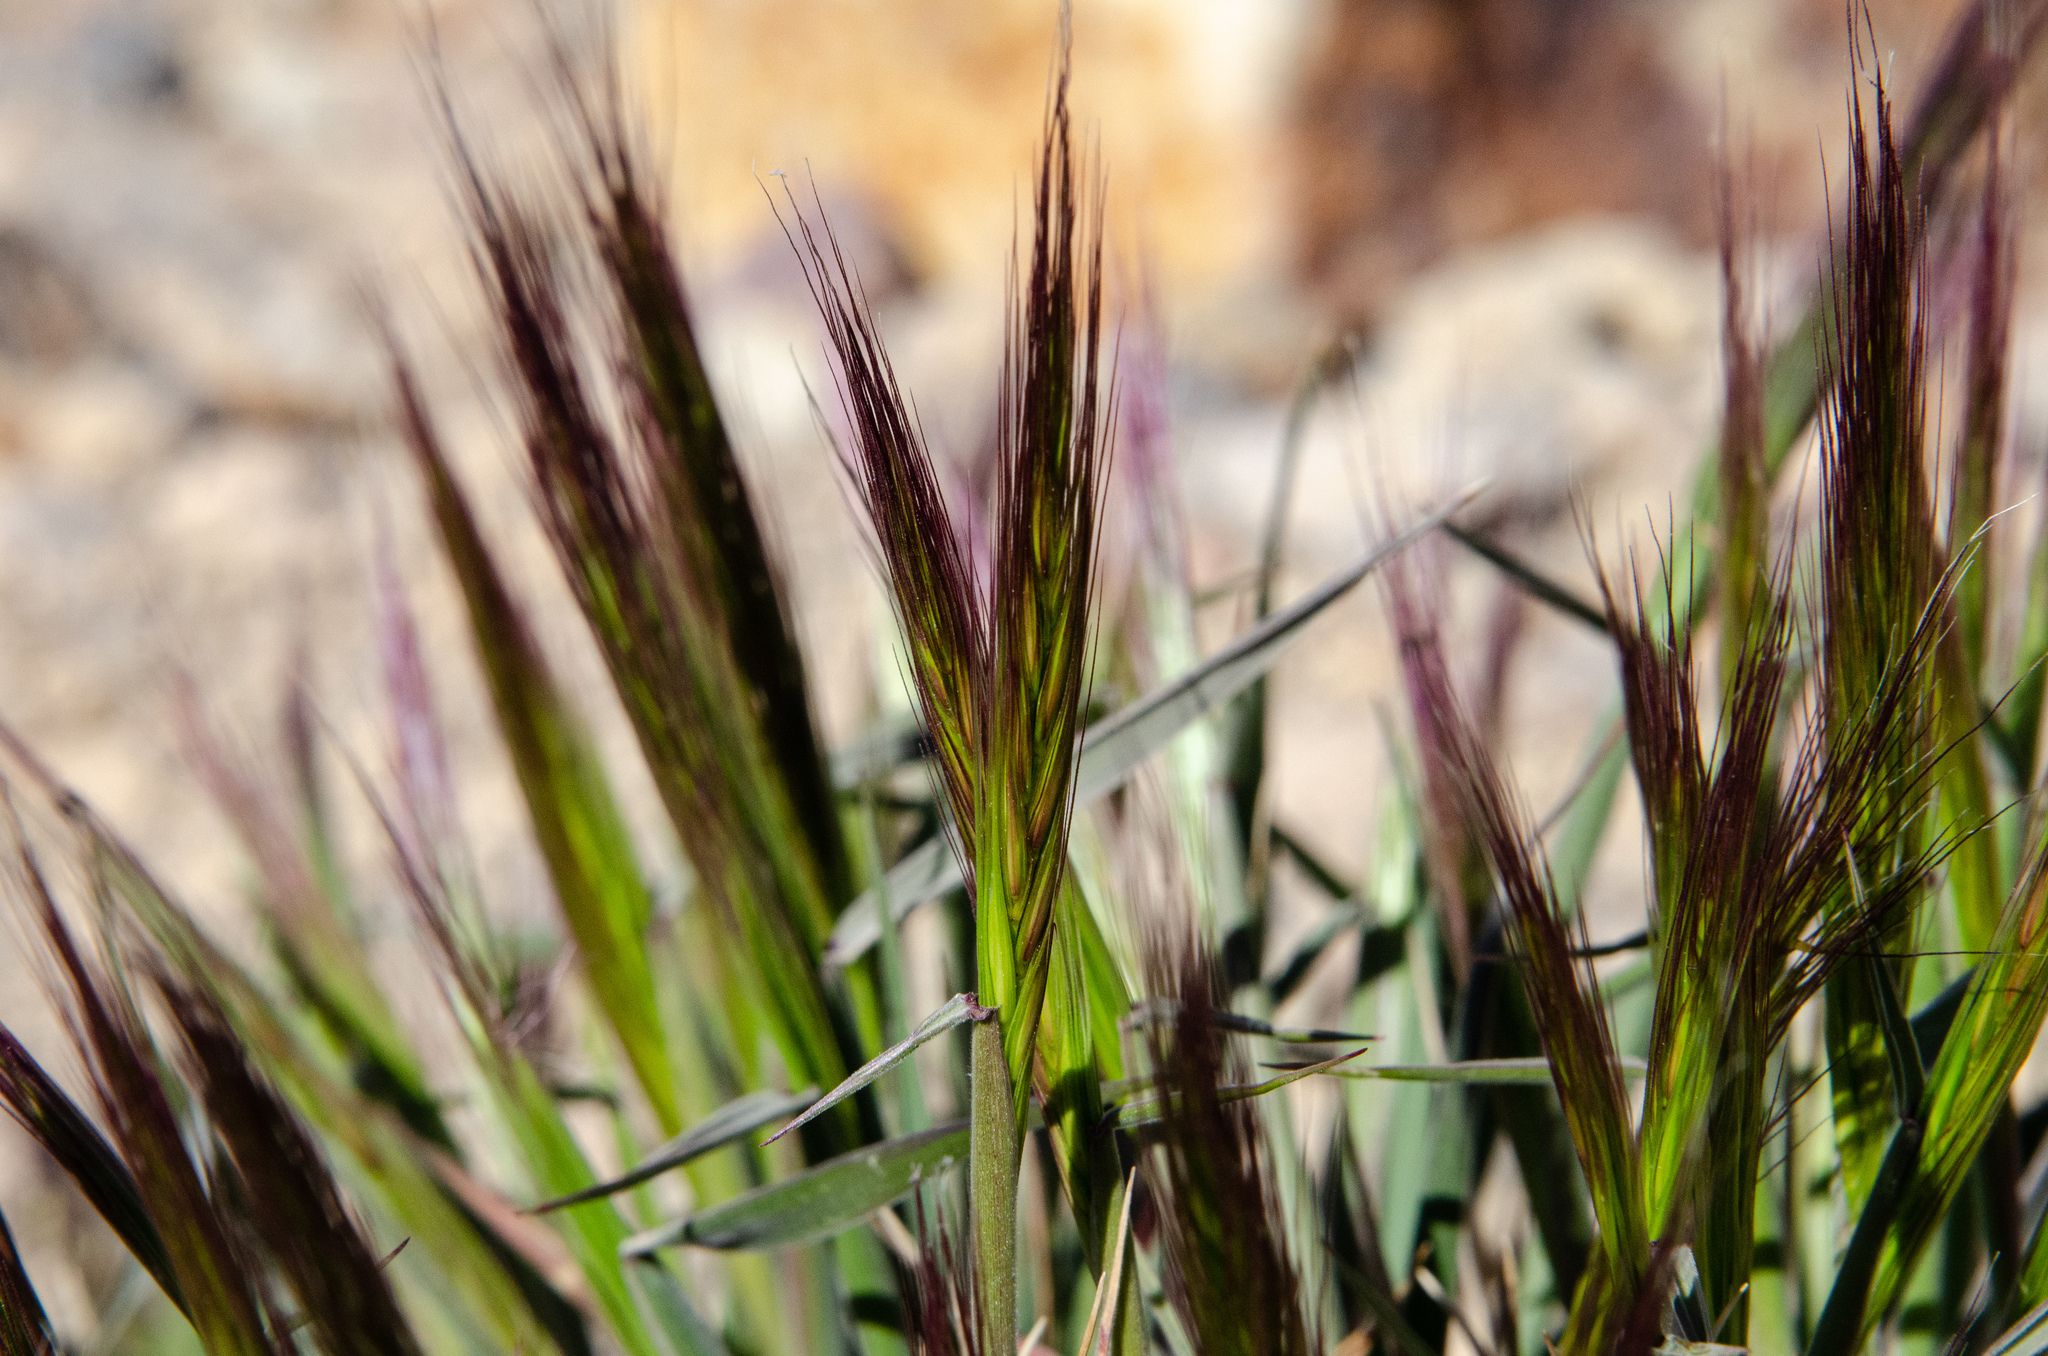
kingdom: Plantae
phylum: Tracheophyta
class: Liliopsida
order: Poales
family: Poaceae
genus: Elymus
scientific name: Elymus elymoides
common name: Bottlebrush squirreltail
